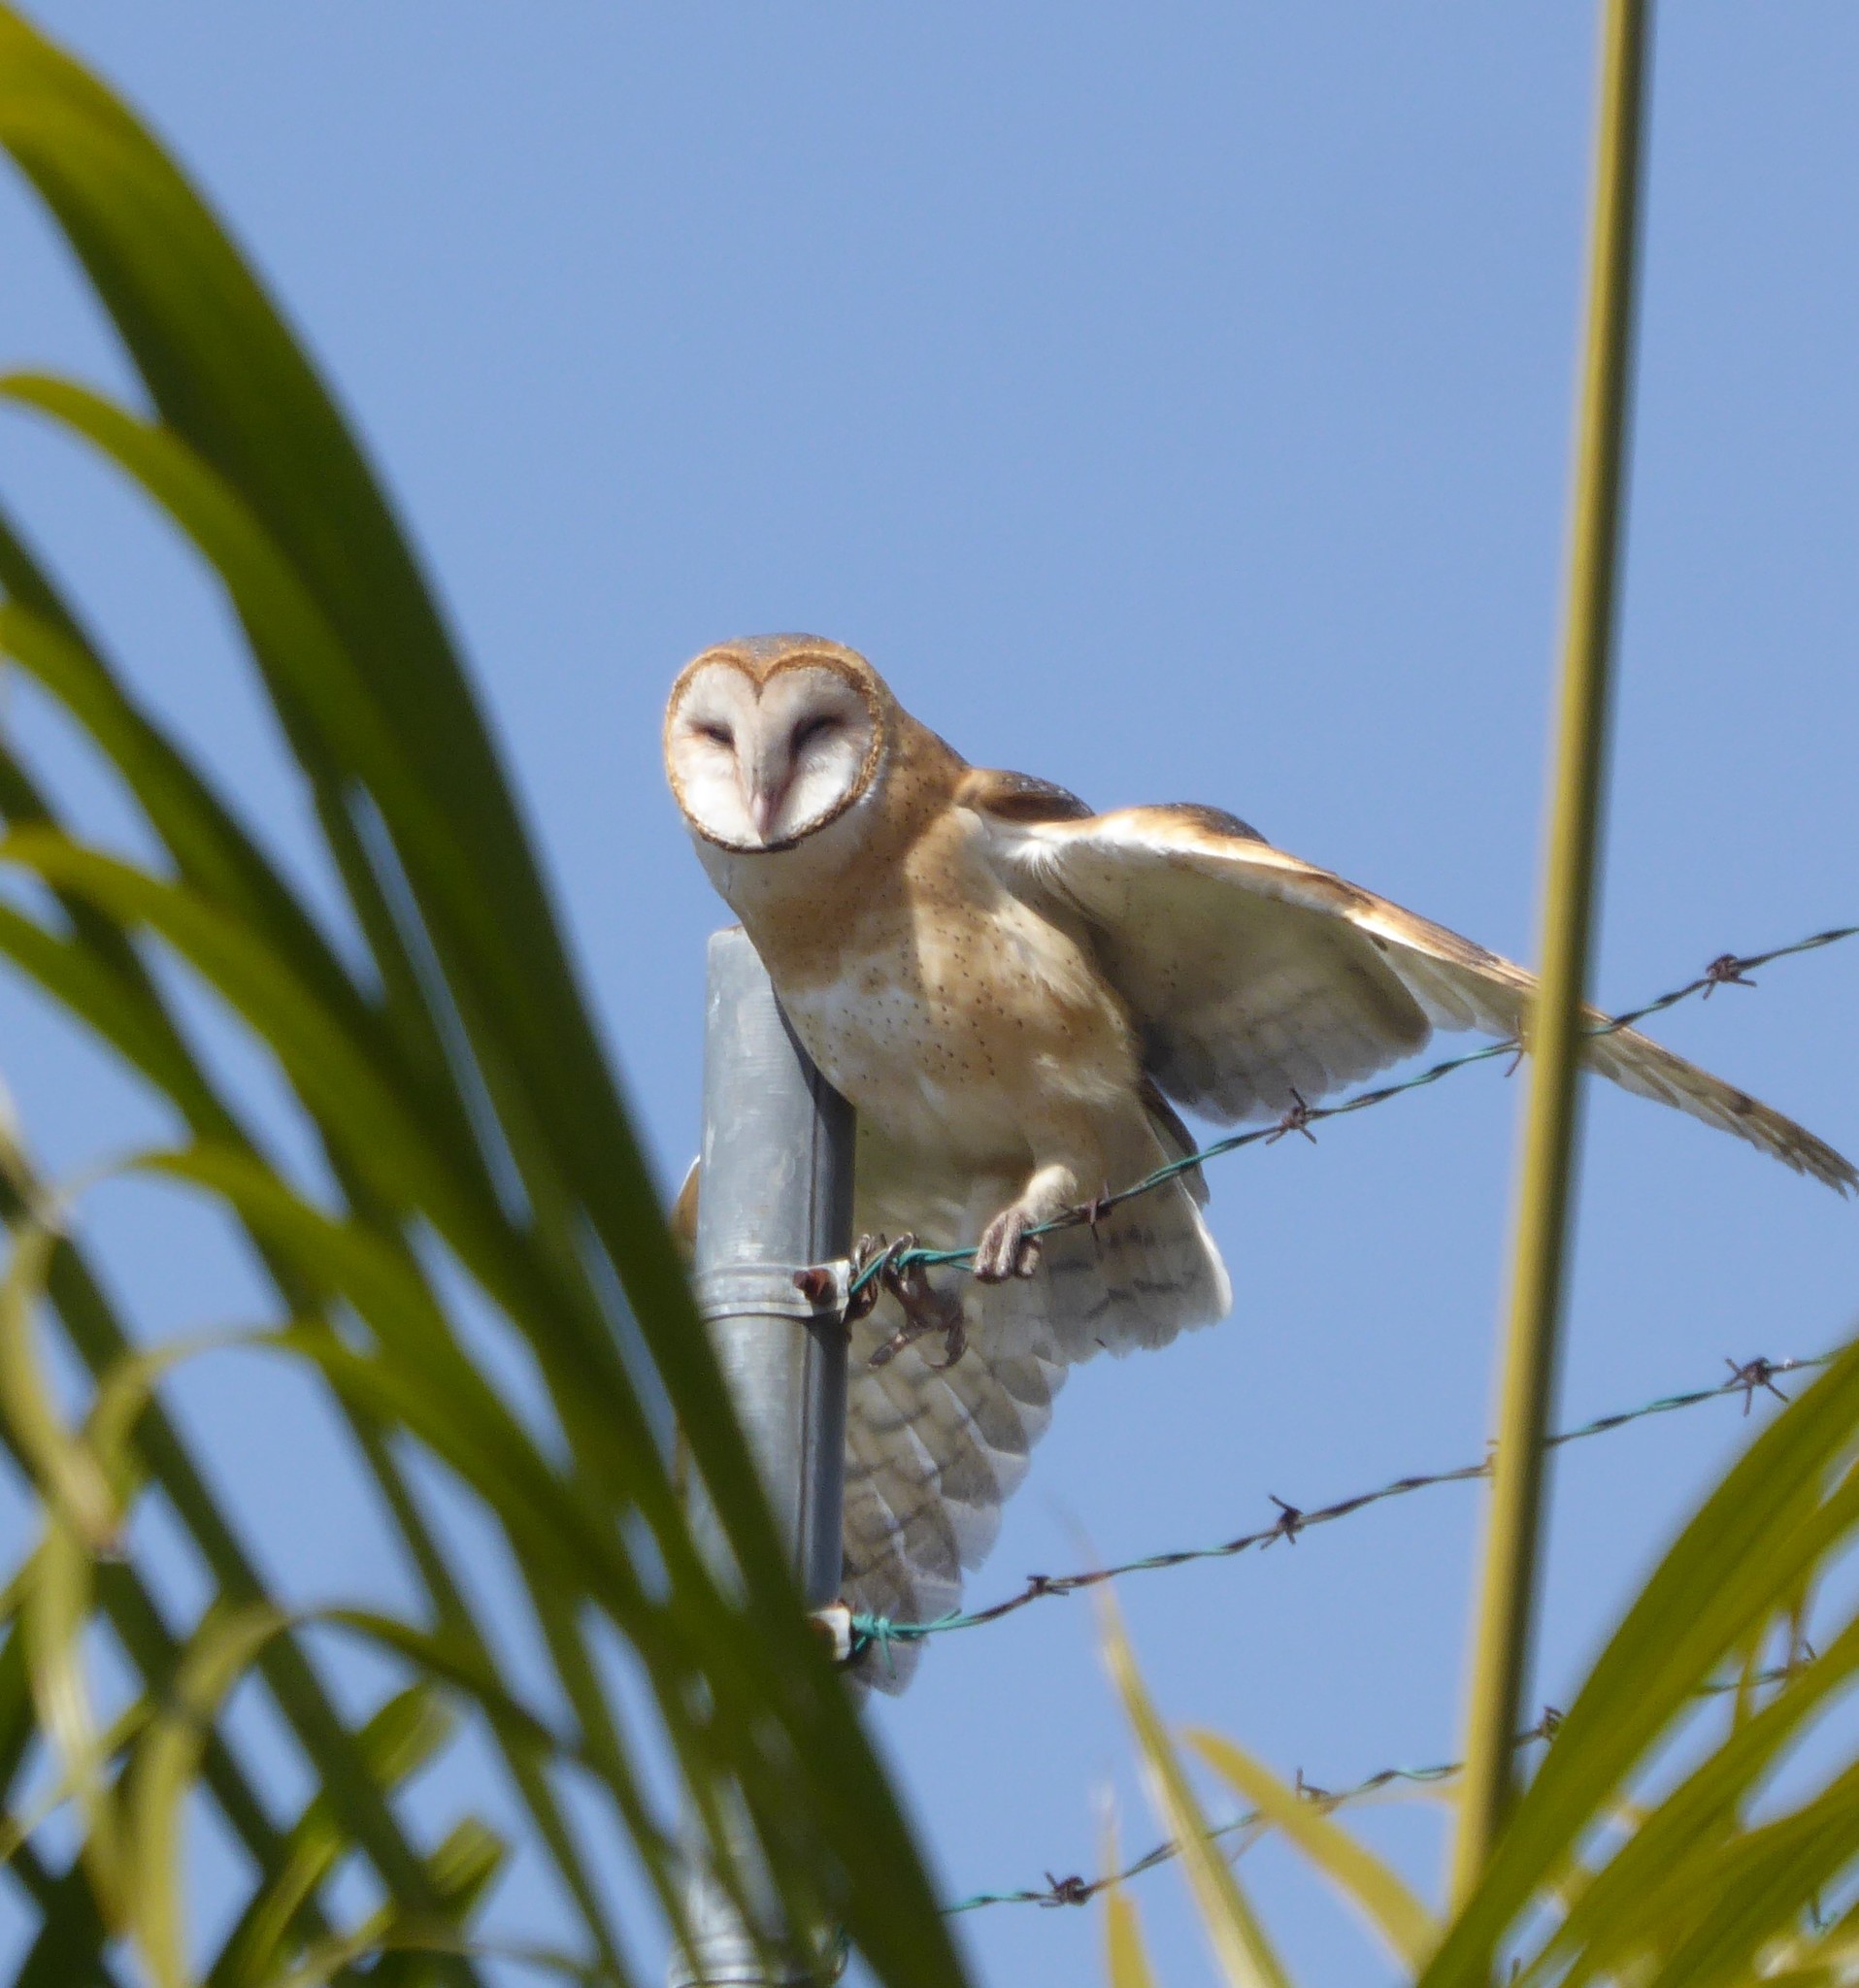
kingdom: Animalia
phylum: Chordata
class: Aves
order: Strigiformes
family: Tytonidae
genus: Tyto
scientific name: Tyto alba
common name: Barn owl
